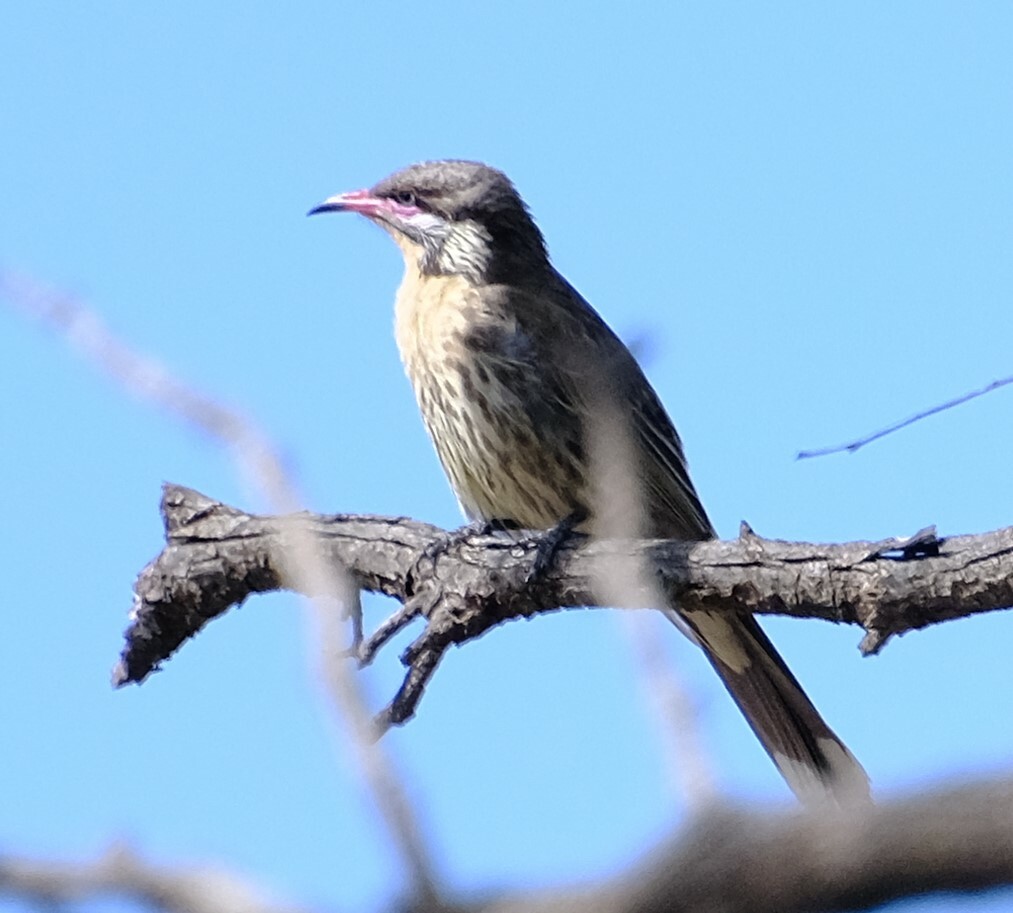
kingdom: Animalia
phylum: Chordata
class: Aves
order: Passeriformes
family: Meliphagidae
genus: Acanthagenys
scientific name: Acanthagenys rufogularis
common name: Spiny-cheeked honeyeater
